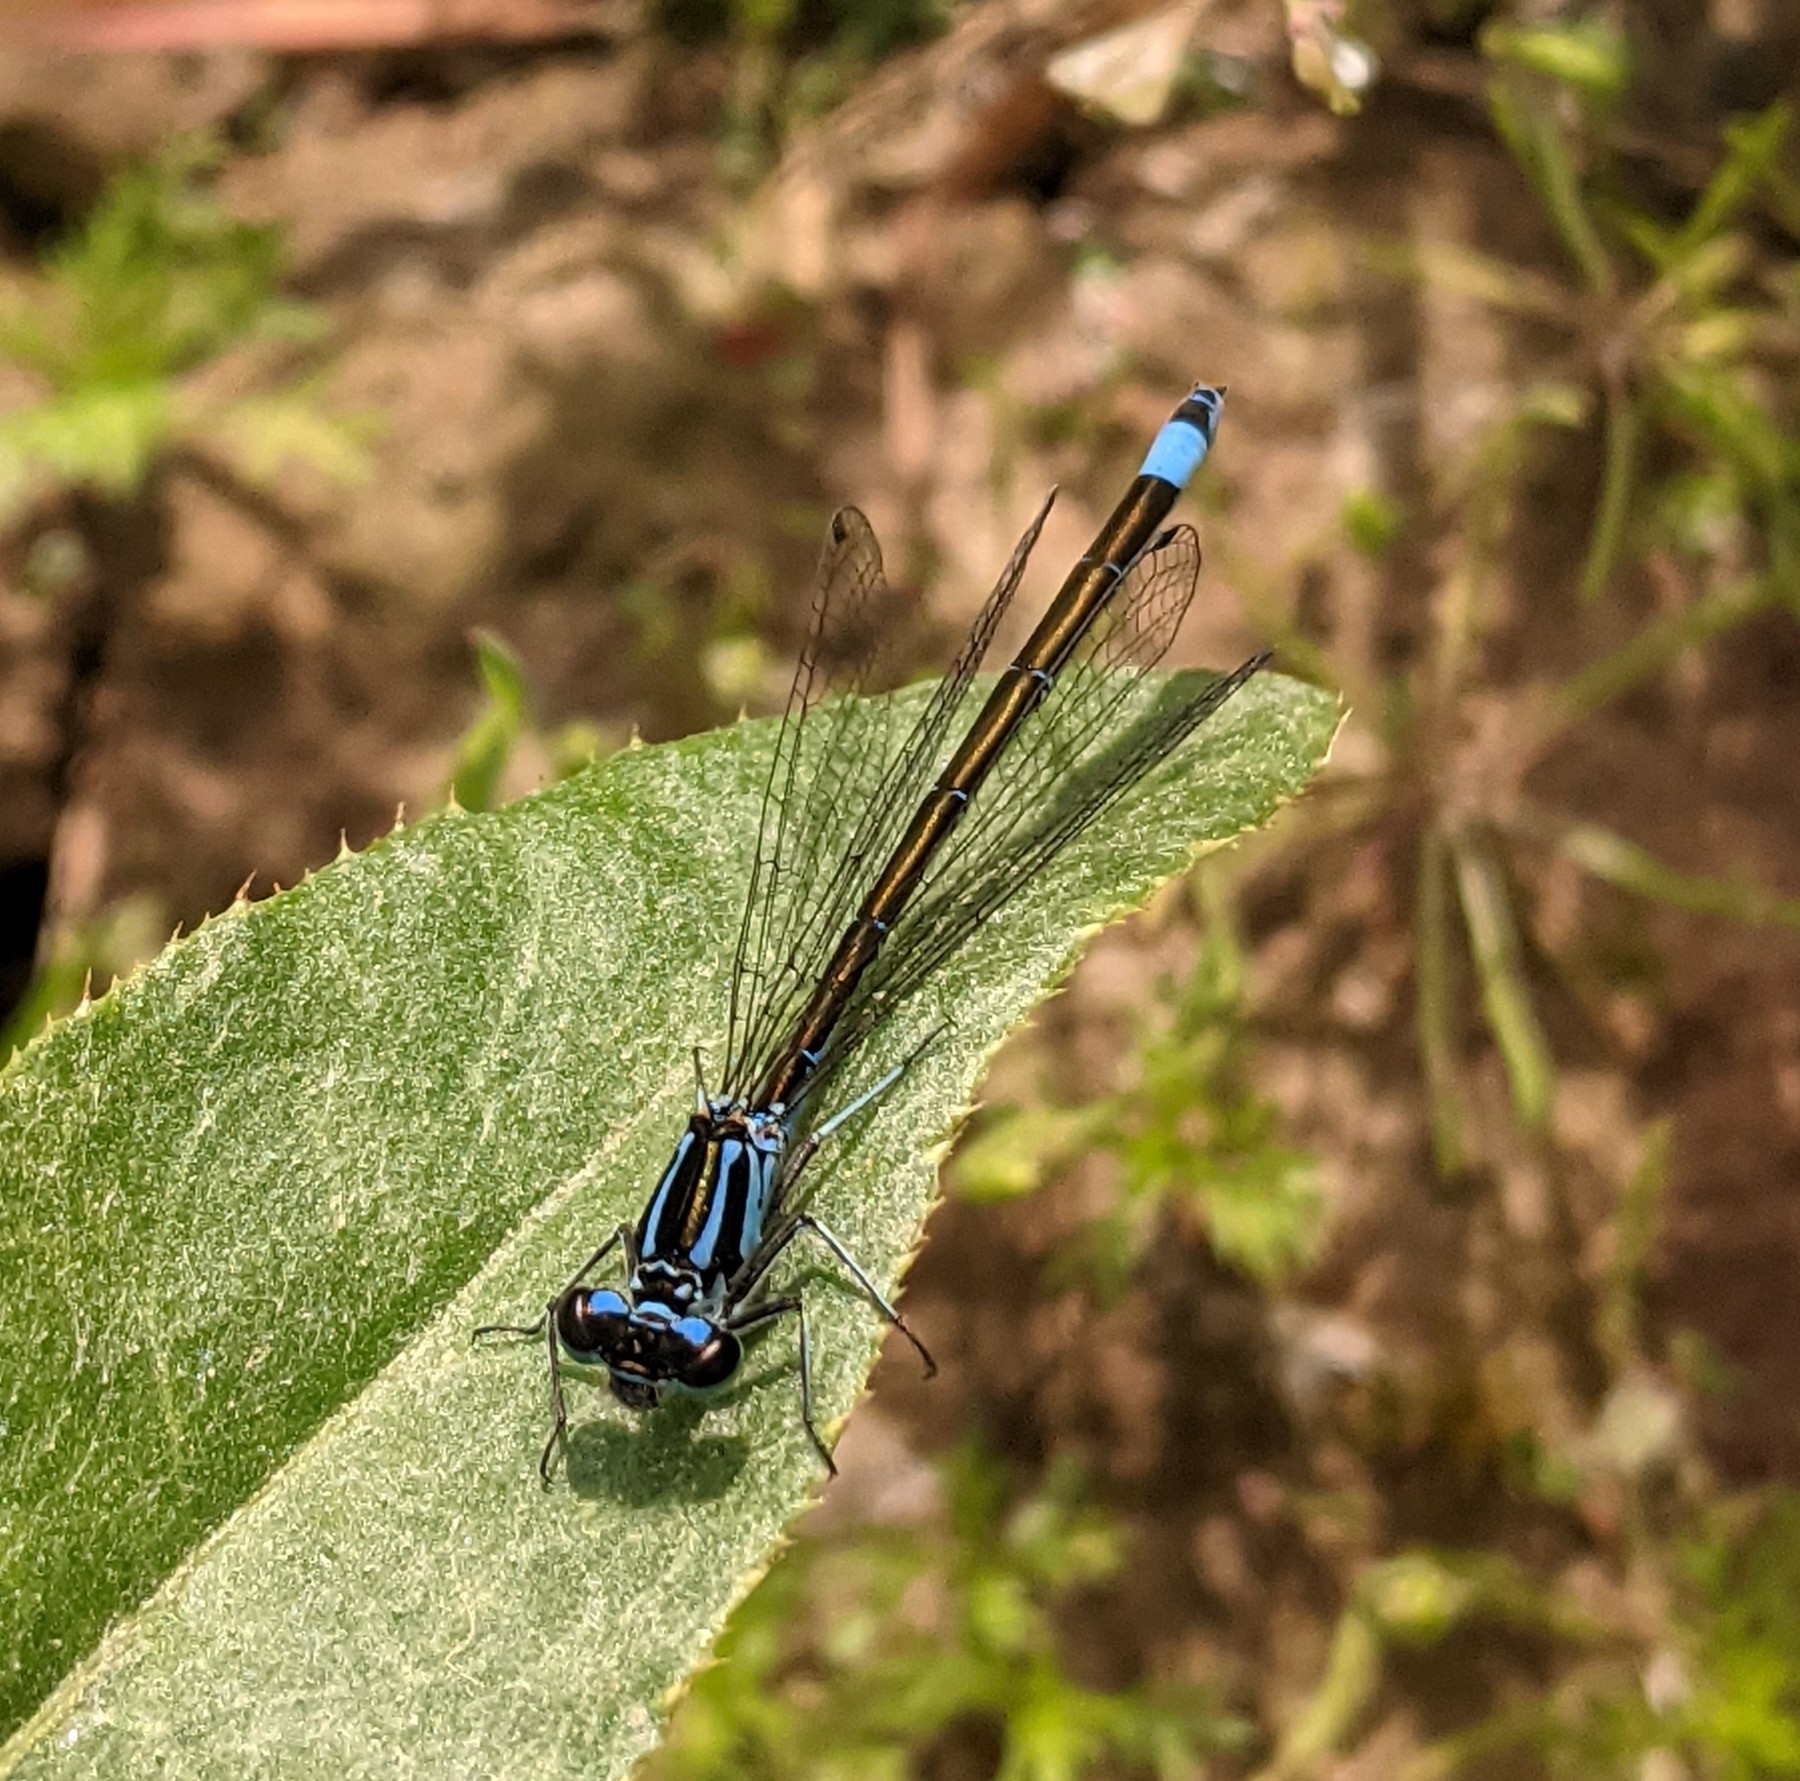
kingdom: Animalia
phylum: Arthropoda
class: Insecta
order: Odonata
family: Coenagrionidae
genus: Coenagrion
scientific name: Coenagrion pulchellum
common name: Variable bluet
